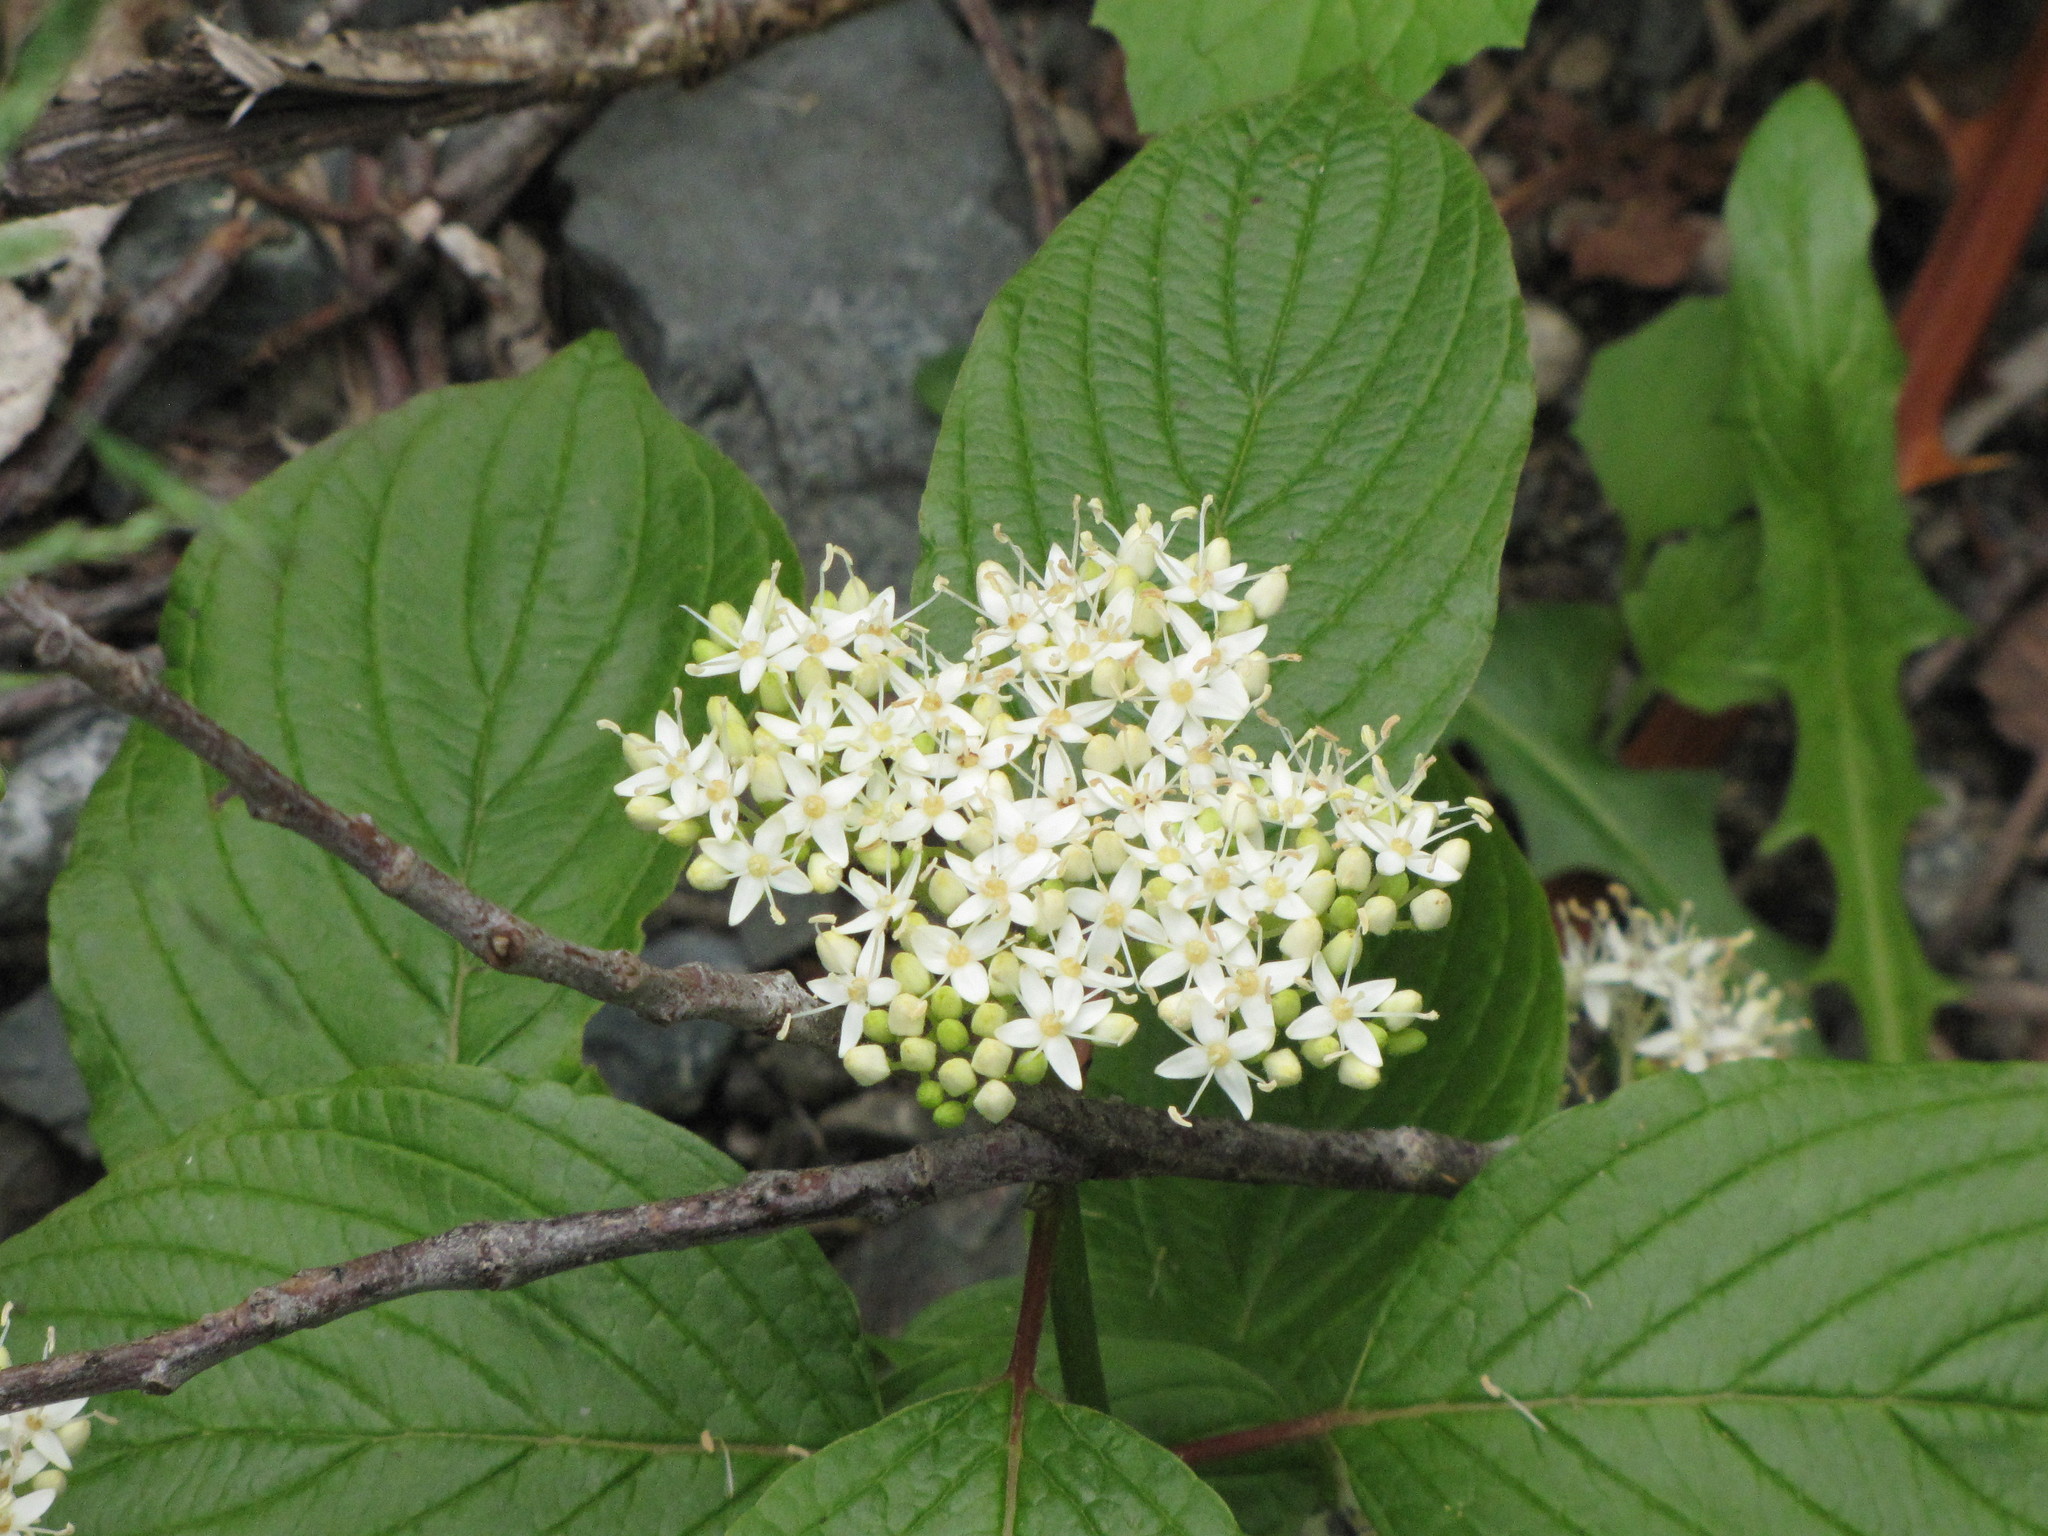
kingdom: Plantae
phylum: Tracheophyta
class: Magnoliopsida
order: Cornales
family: Cornaceae
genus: Cornus
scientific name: Cornus sericea
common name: Red-osier dogwood
